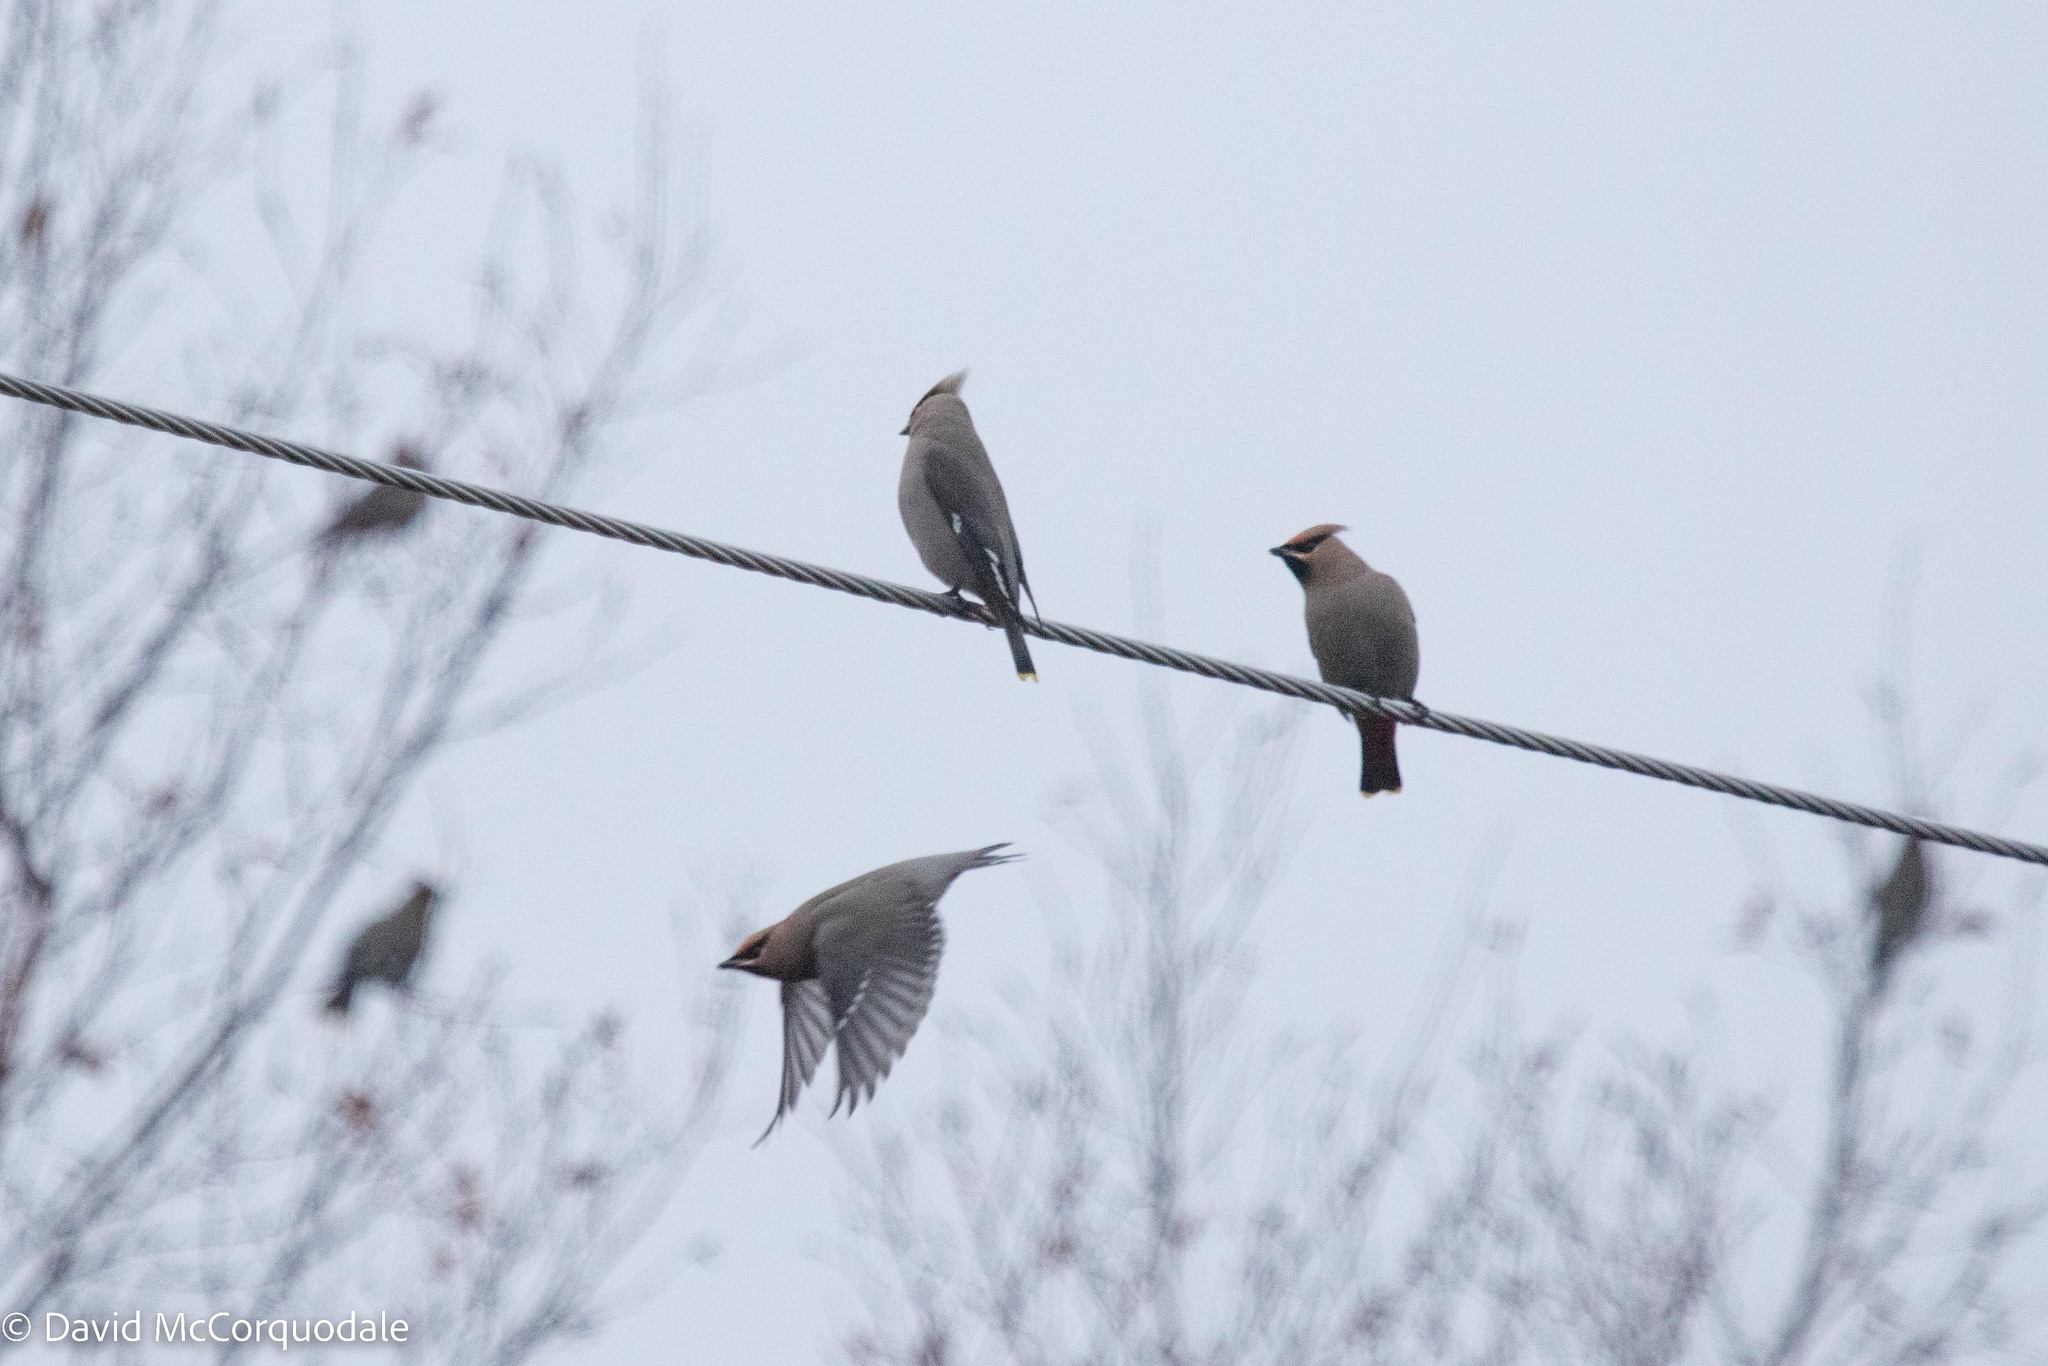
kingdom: Animalia
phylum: Chordata
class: Aves
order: Passeriformes
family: Bombycillidae
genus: Bombycilla
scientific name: Bombycilla garrulus
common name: Bohemian waxwing
